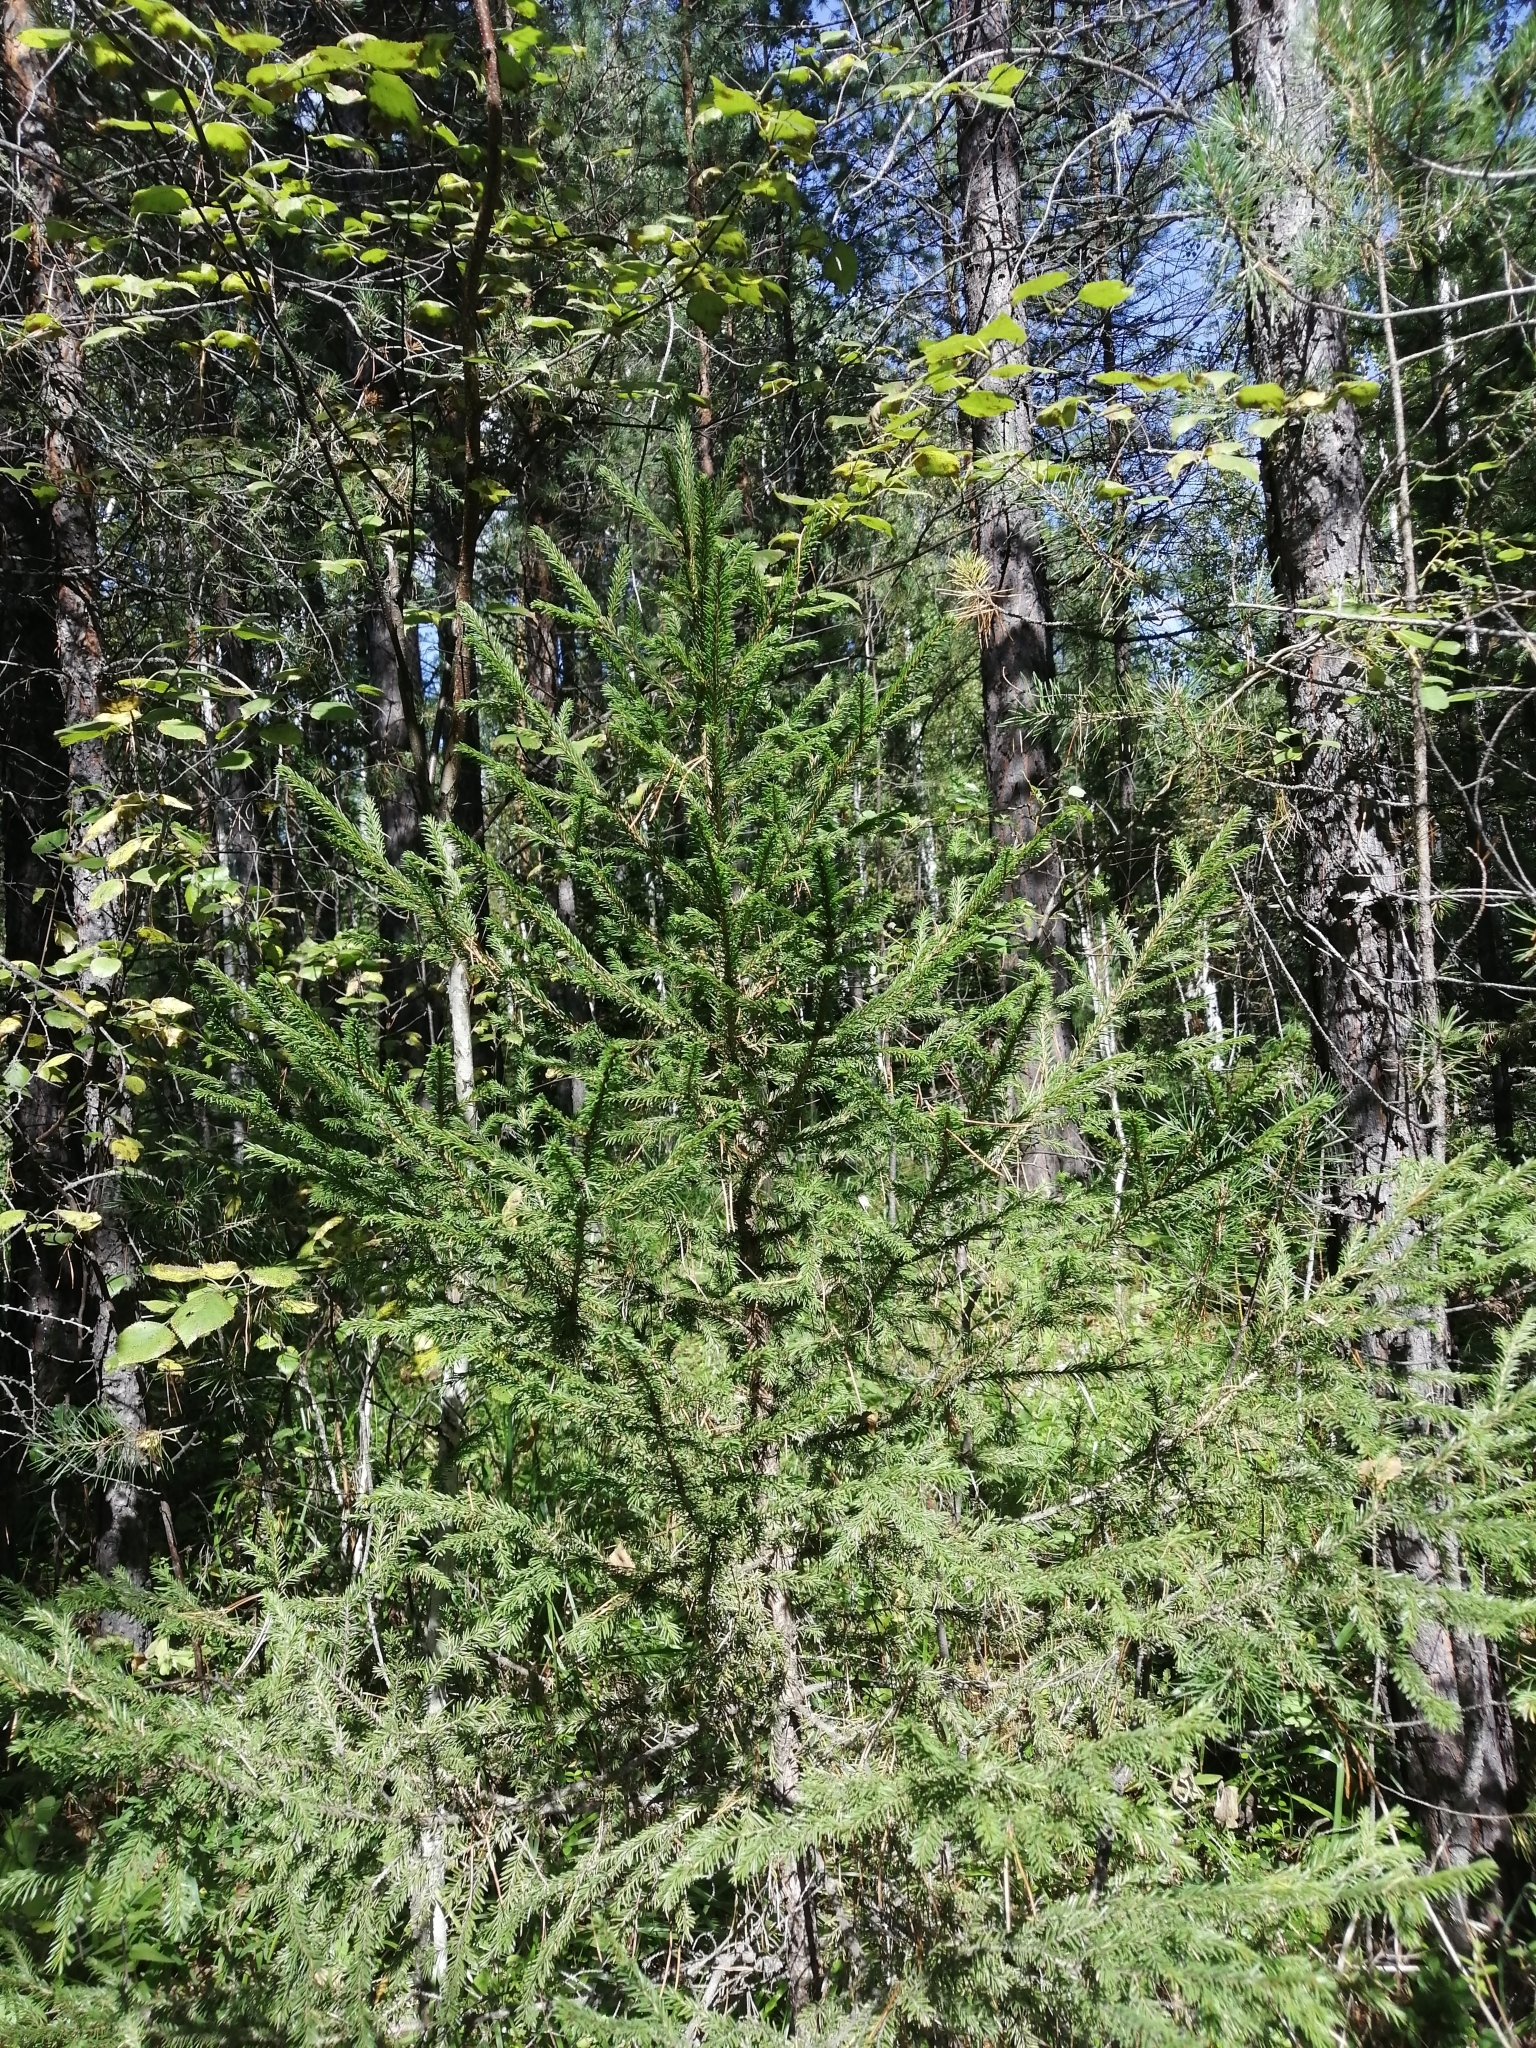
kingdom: Plantae
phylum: Tracheophyta
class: Pinopsida
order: Pinales
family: Pinaceae
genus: Picea
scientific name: Picea obovata
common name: Siberian spruce
